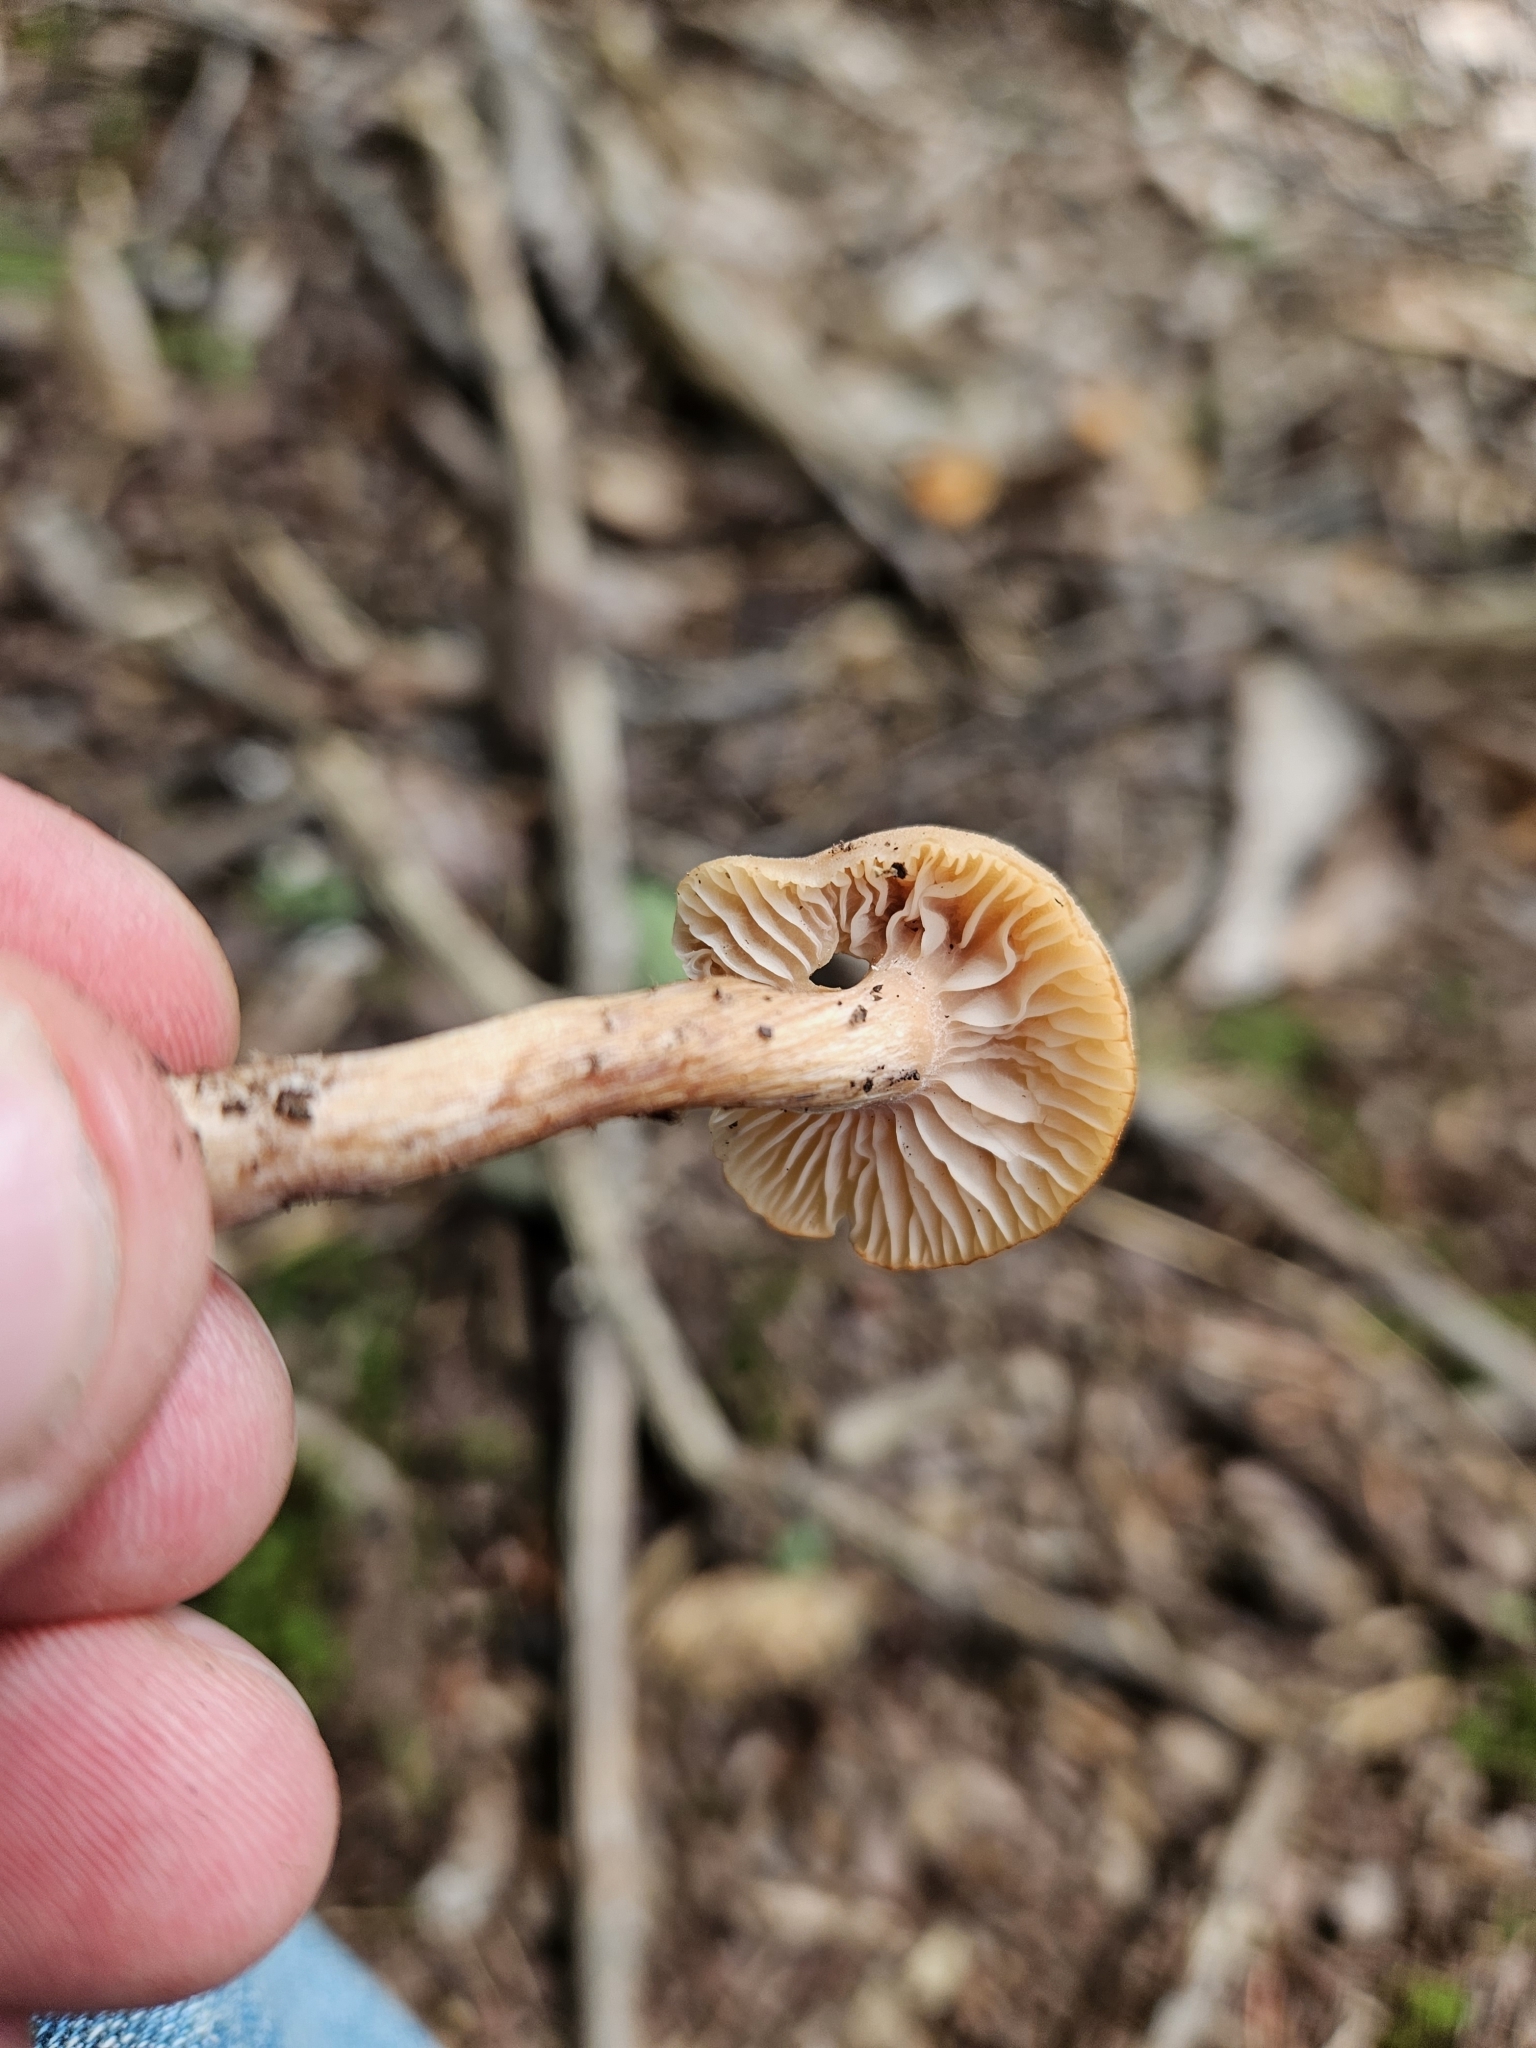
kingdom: Fungi
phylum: Basidiomycota
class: Agaricomycetes
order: Agaricales
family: Hydnangiaceae
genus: Laccaria
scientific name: Laccaria laccata
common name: Deceiver
